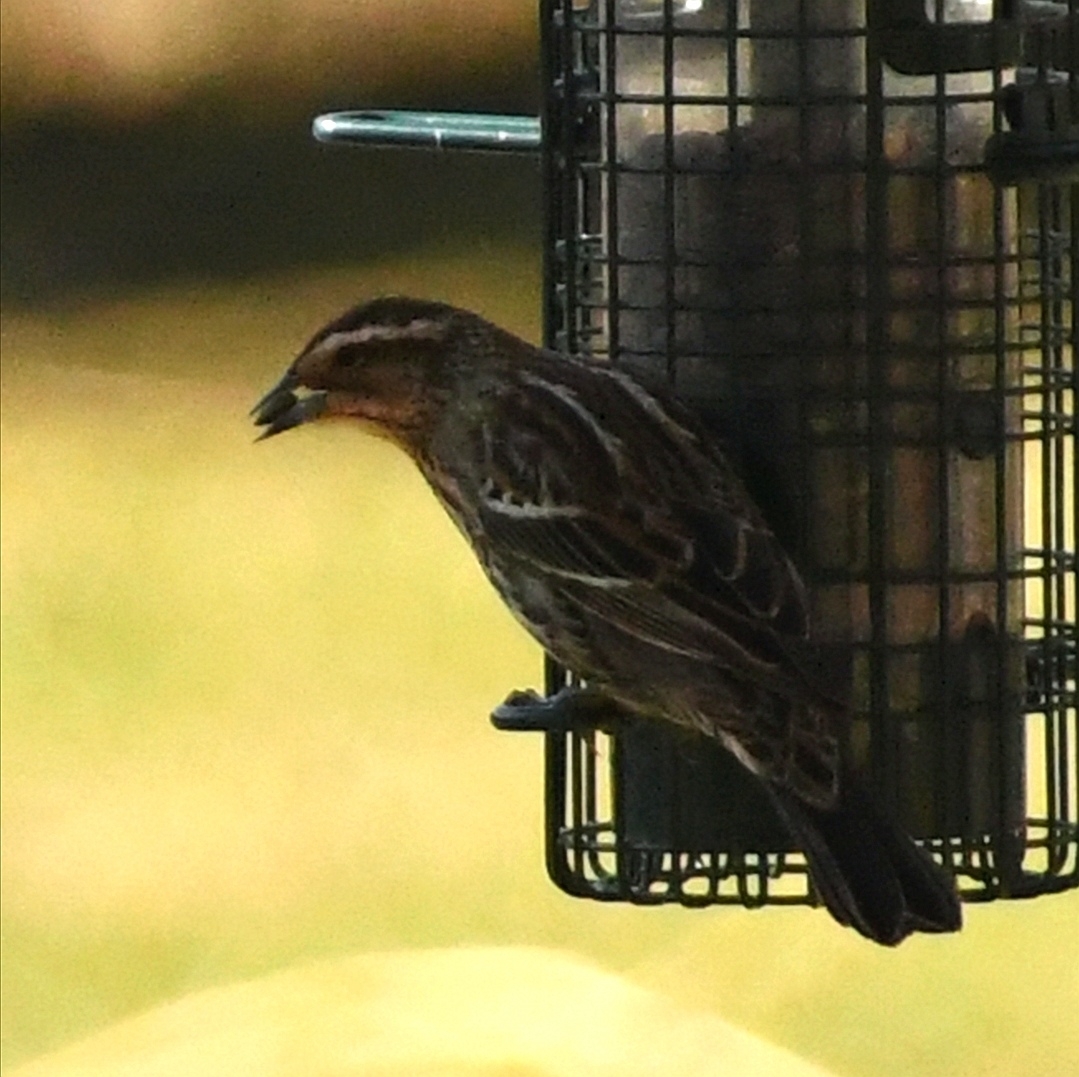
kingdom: Animalia
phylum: Chordata
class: Aves
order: Passeriformes
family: Icteridae
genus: Agelaius
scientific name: Agelaius phoeniceus
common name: Red-winged blackbird
